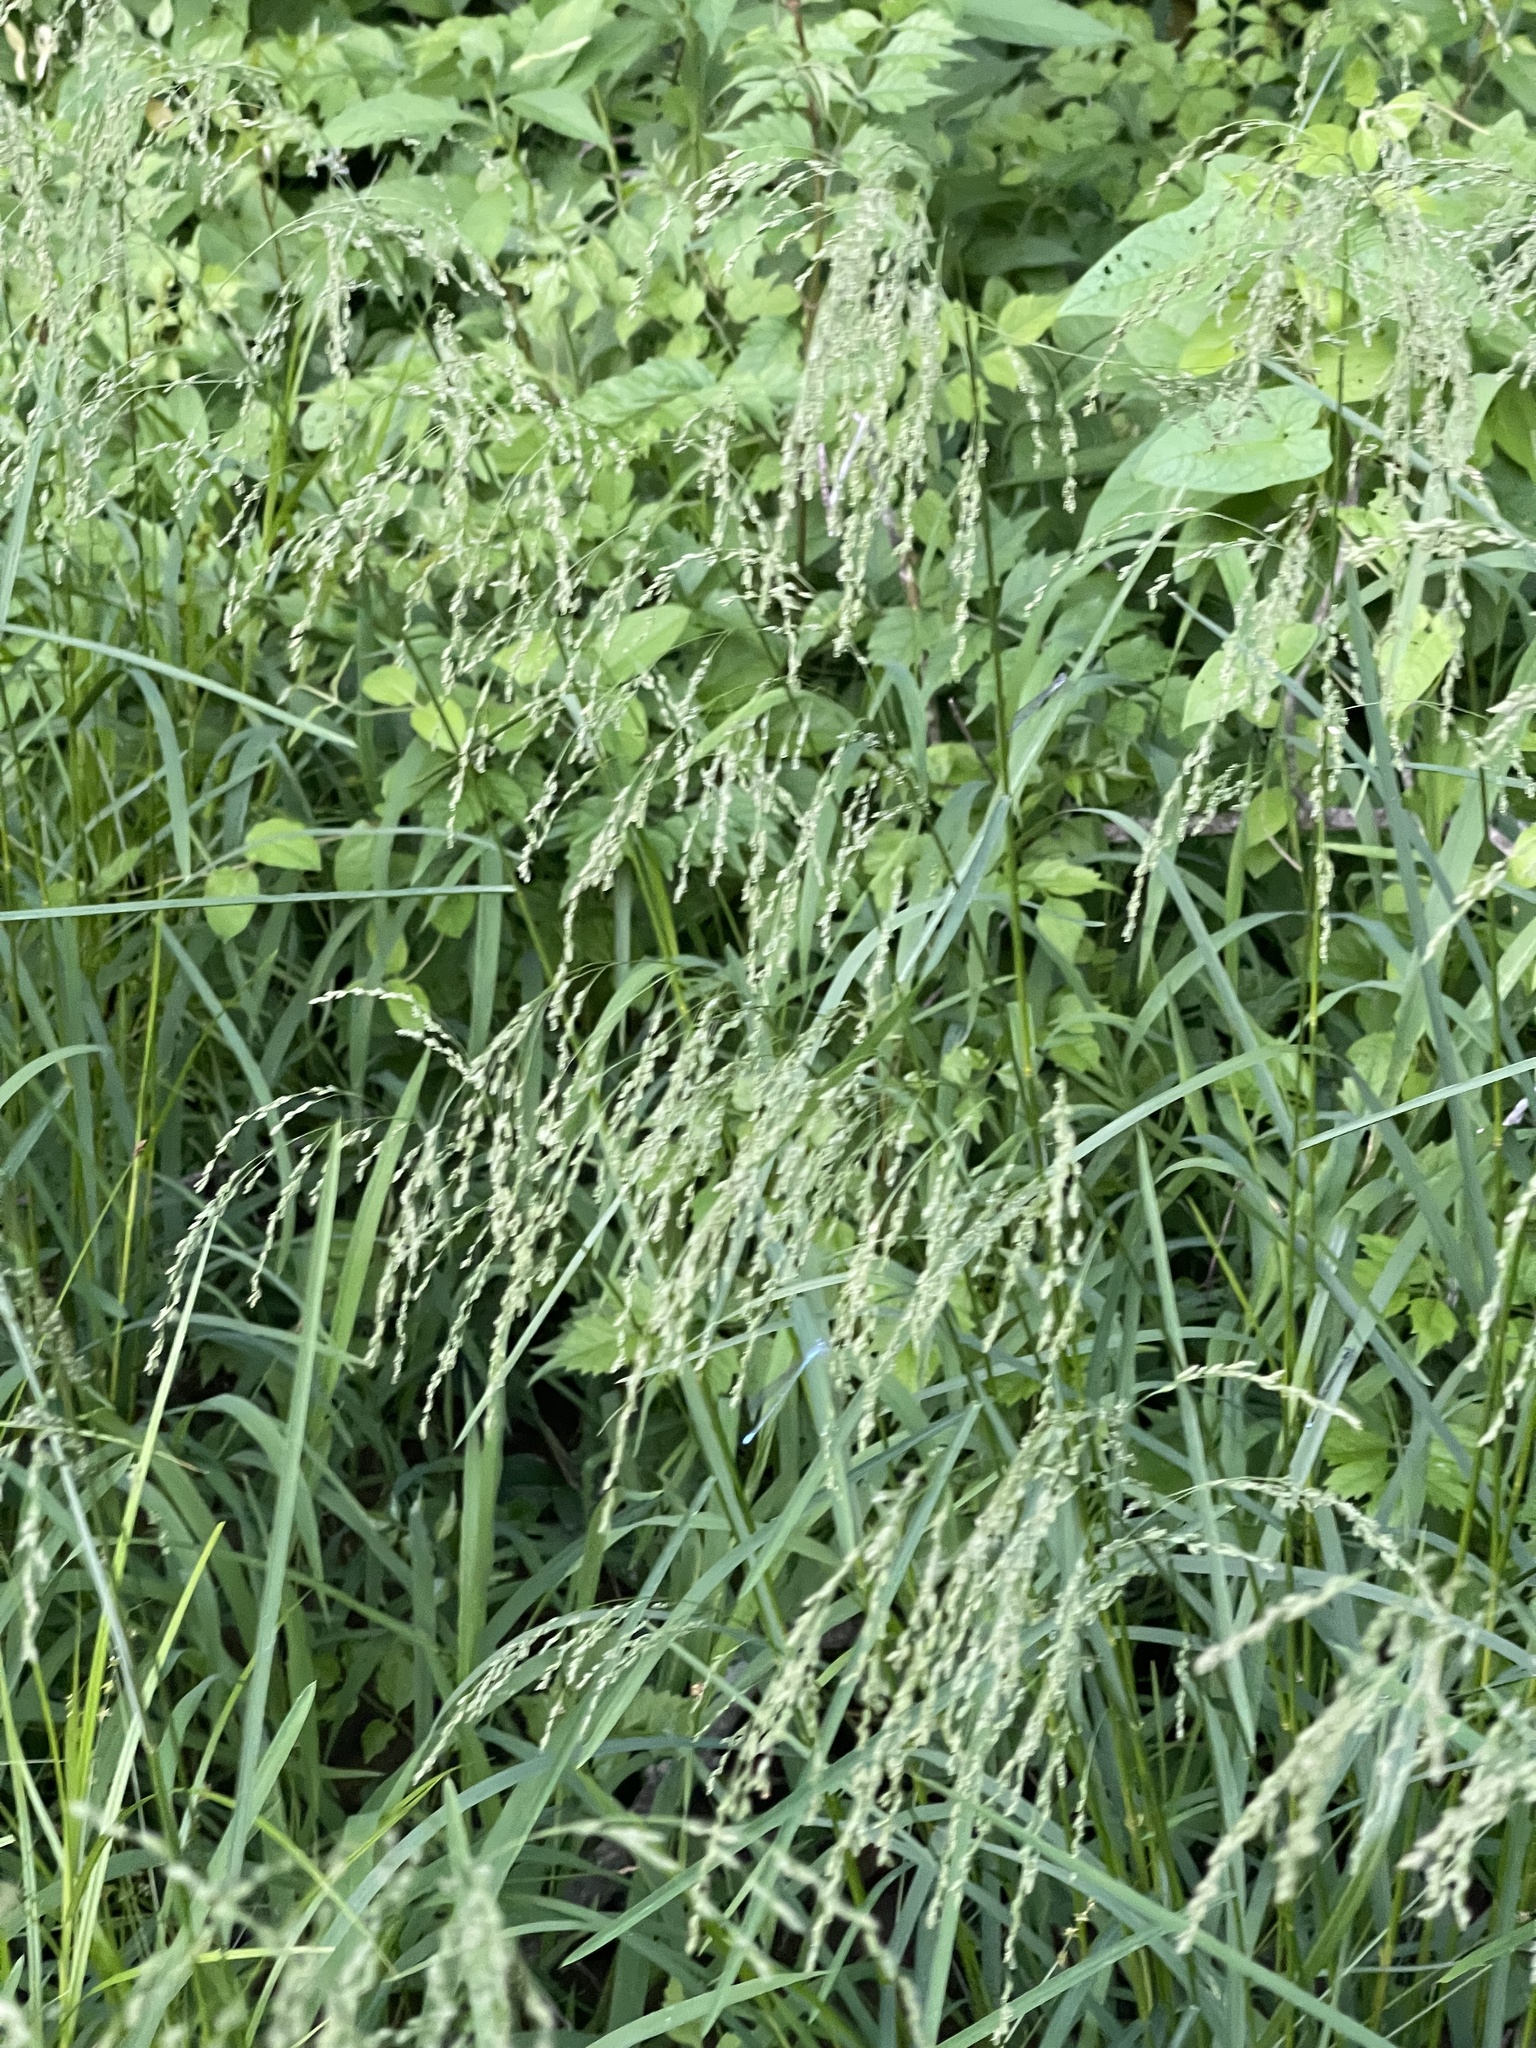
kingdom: Plantae
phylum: Tracheophyta
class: Liliopsida
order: Poales
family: Poaceae
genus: Glyceria
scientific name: Glyceria striata
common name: Fowl manna grass
